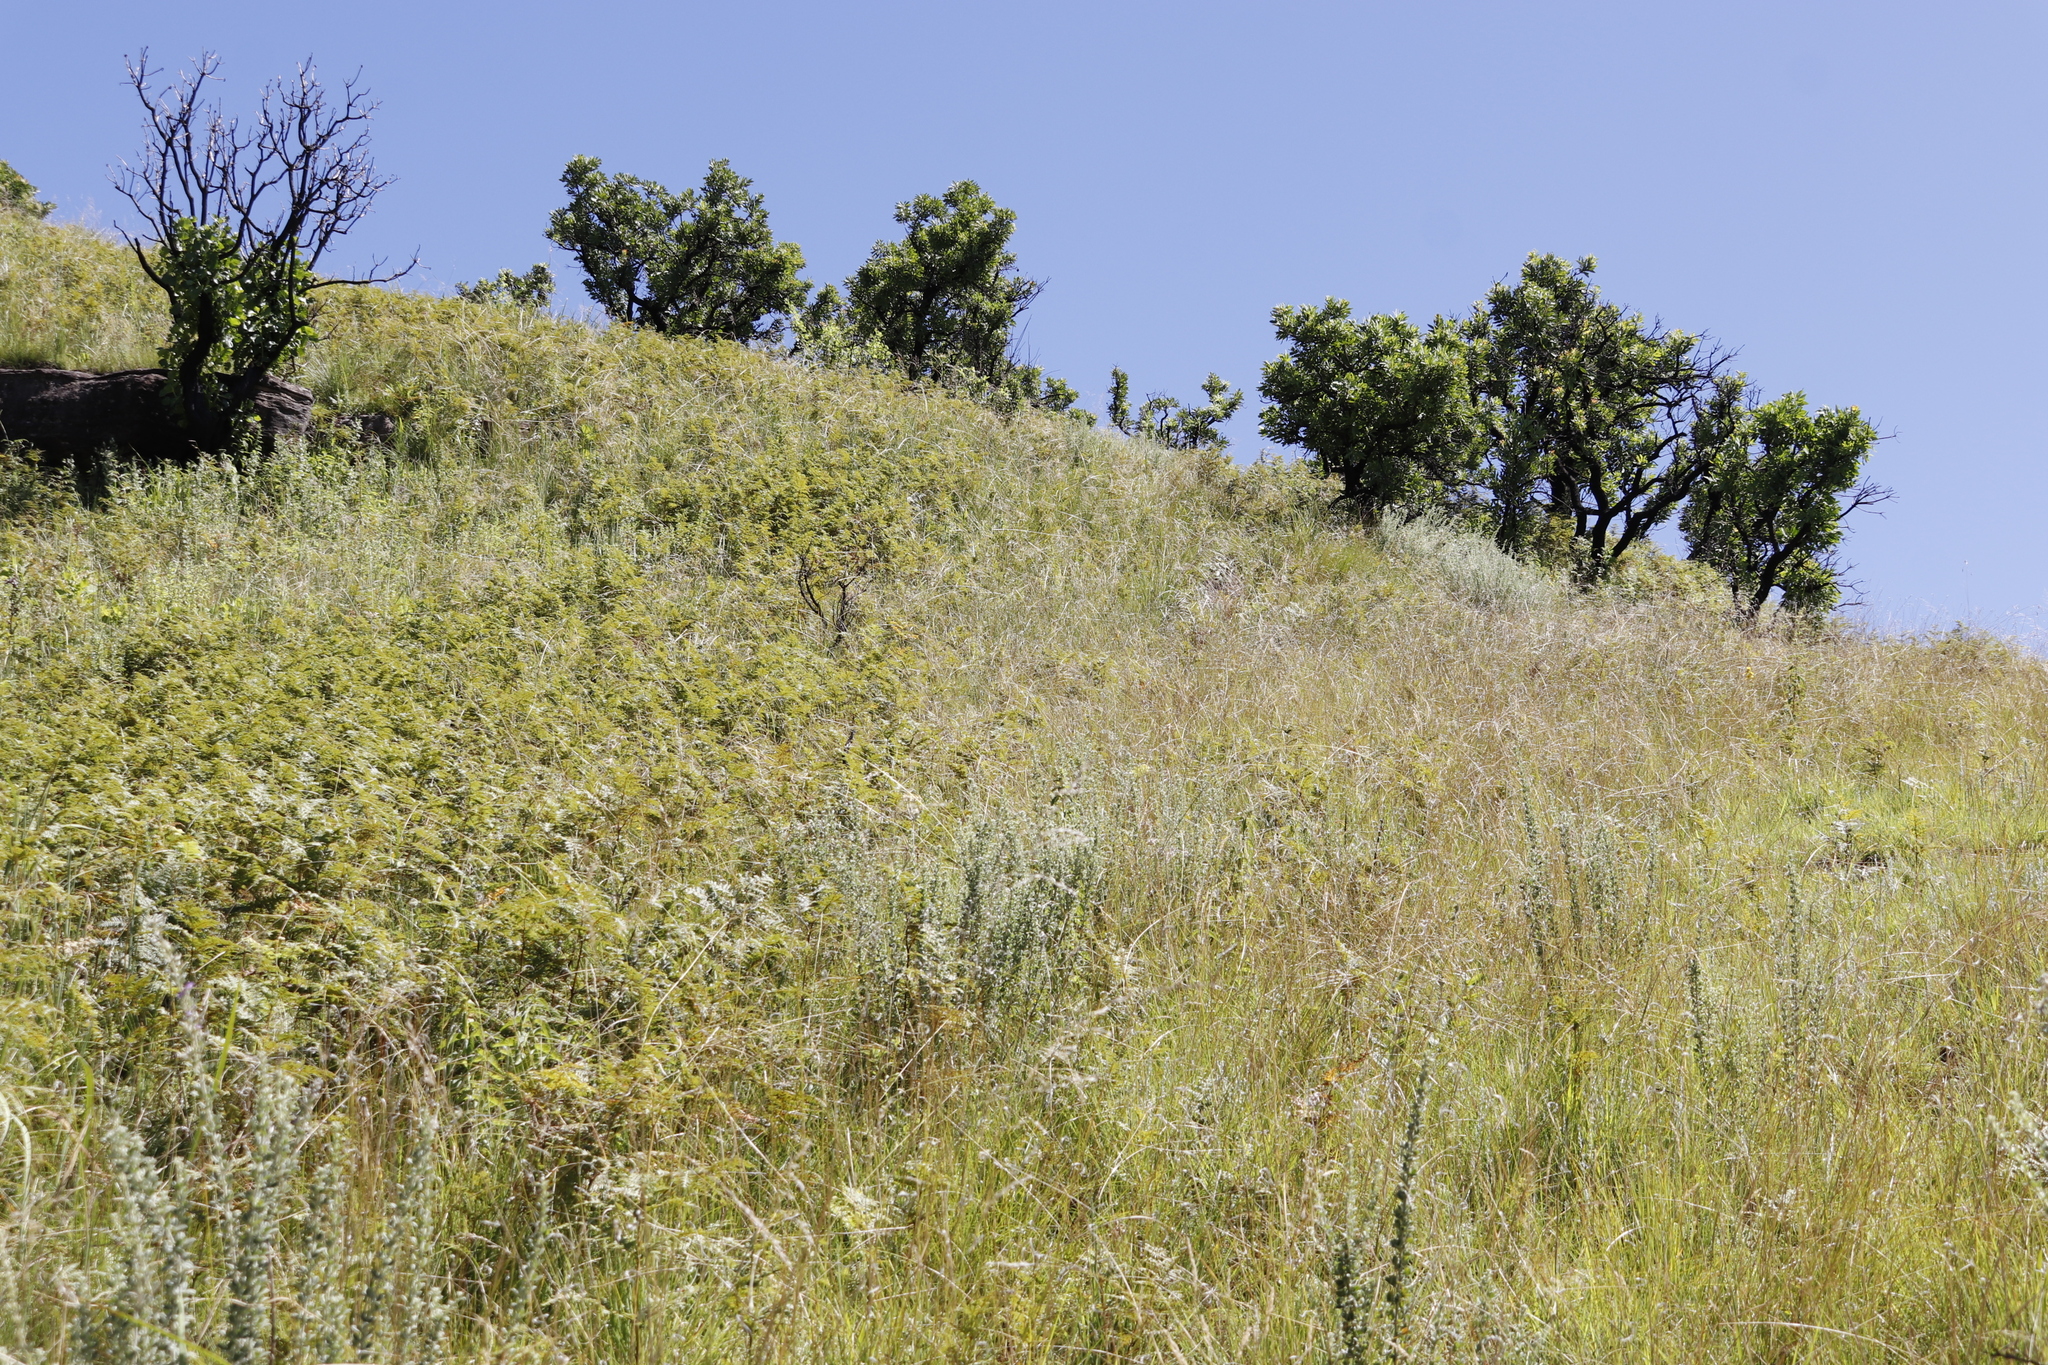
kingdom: Plantae
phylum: Tracheophyta
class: Magnoliopsida
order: Proteales
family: Proteaceae
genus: Protea
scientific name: Protea caffra
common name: Common sugarbush
